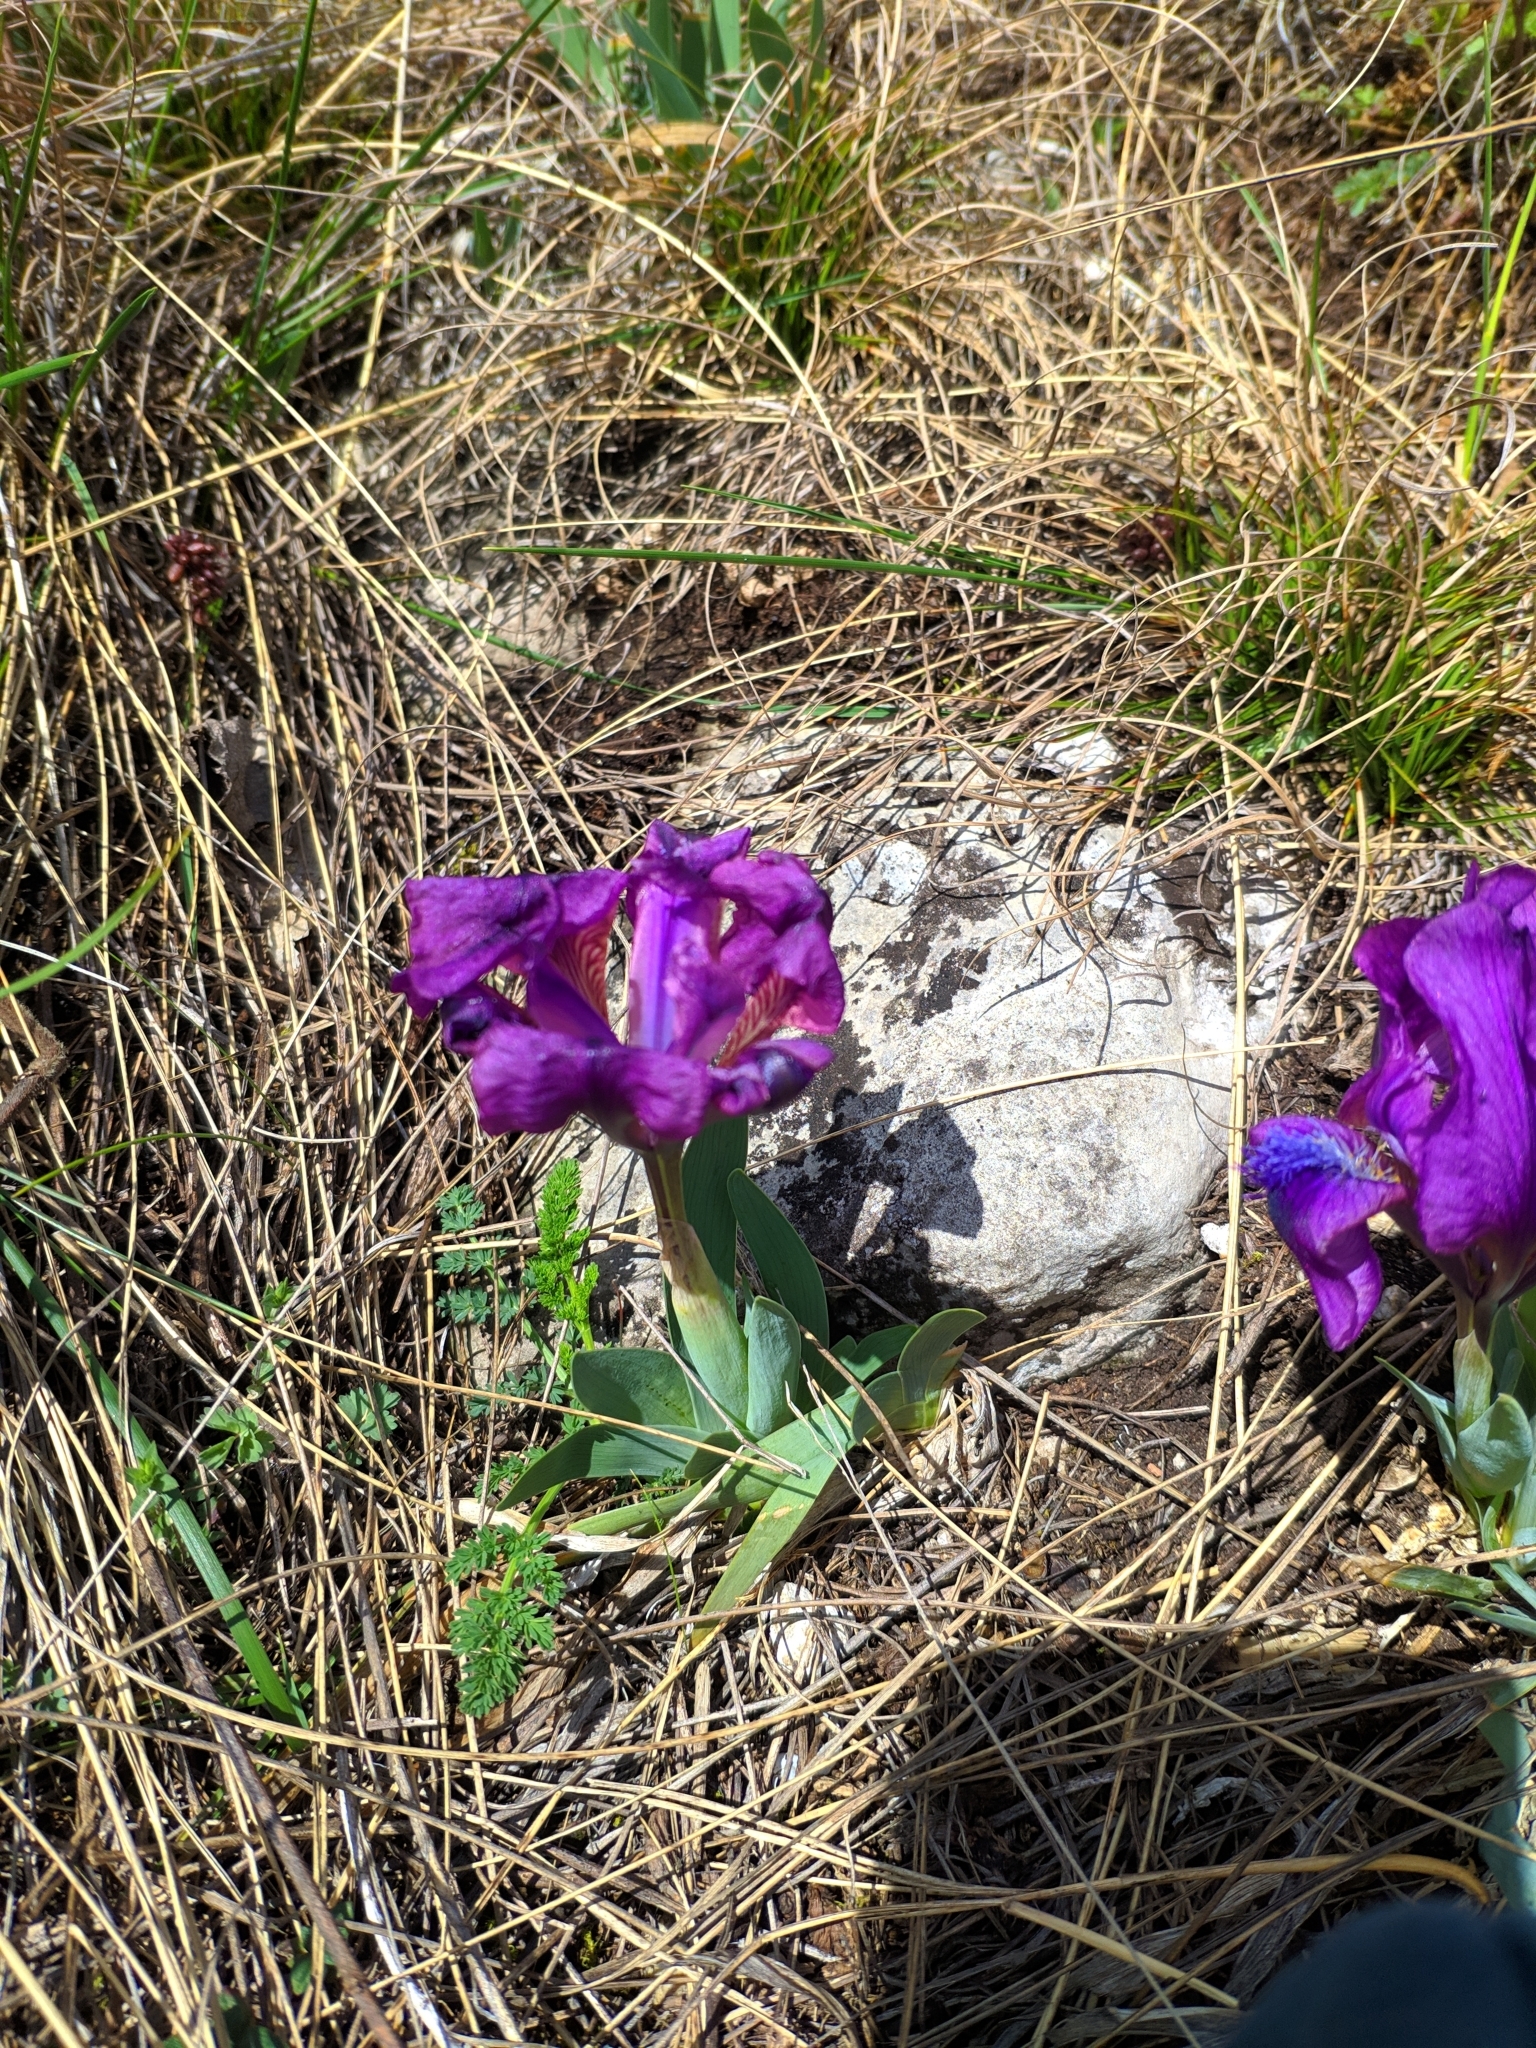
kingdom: Plantae
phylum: Tracheophyta
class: Liliopsida
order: Asparagales
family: Iridaceae
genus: Iris
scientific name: Iris pumila
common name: Dwarf iris
